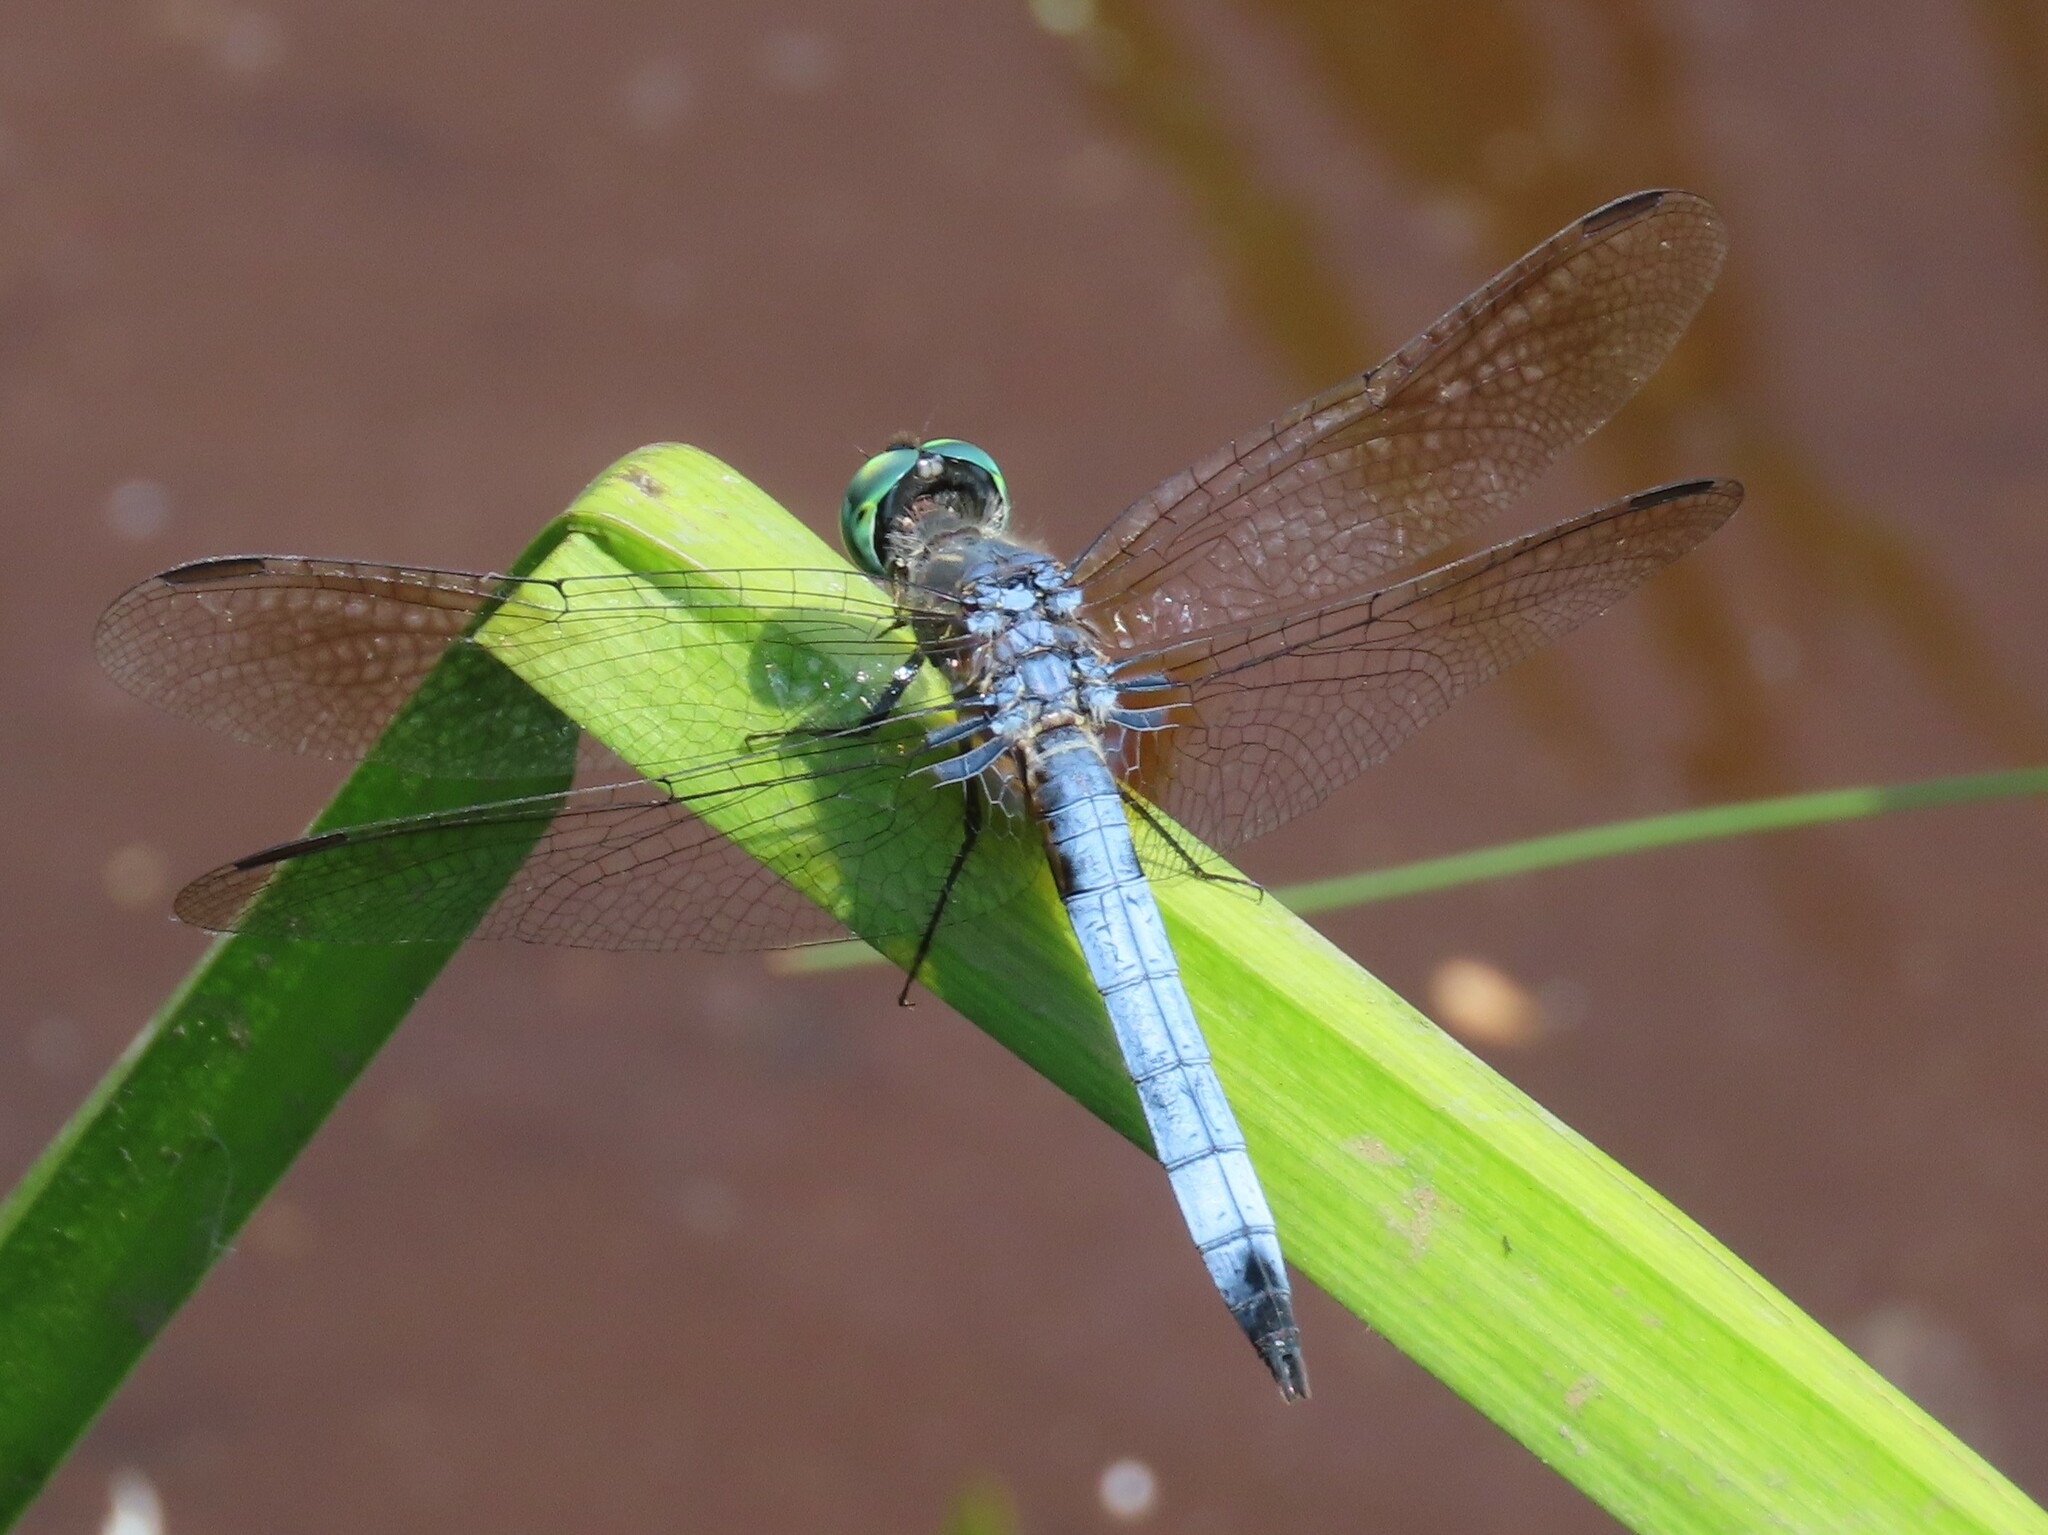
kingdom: Animalia
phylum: Arthropoda
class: Insecta
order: Odonata
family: Libellulidae
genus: Pachydiplax
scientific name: Pachydiplax longipennis
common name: Blue dasher
